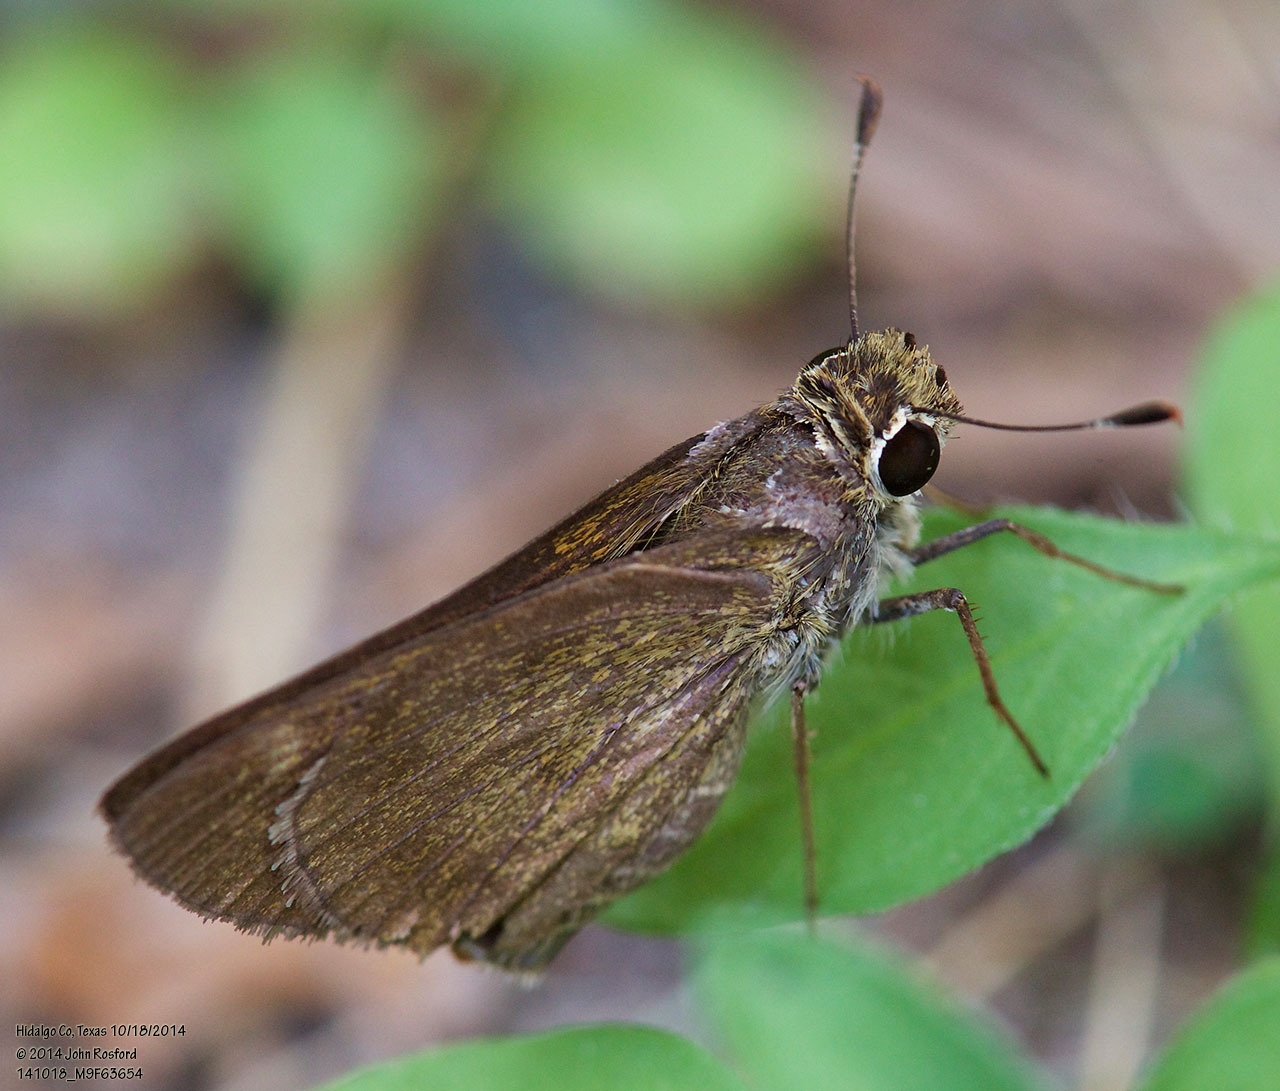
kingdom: Animalia
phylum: Arthropoda
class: Insecta
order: Lepidoptera
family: Hesperiidae
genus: Polites
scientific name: Polites vibex
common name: Whirlabout
